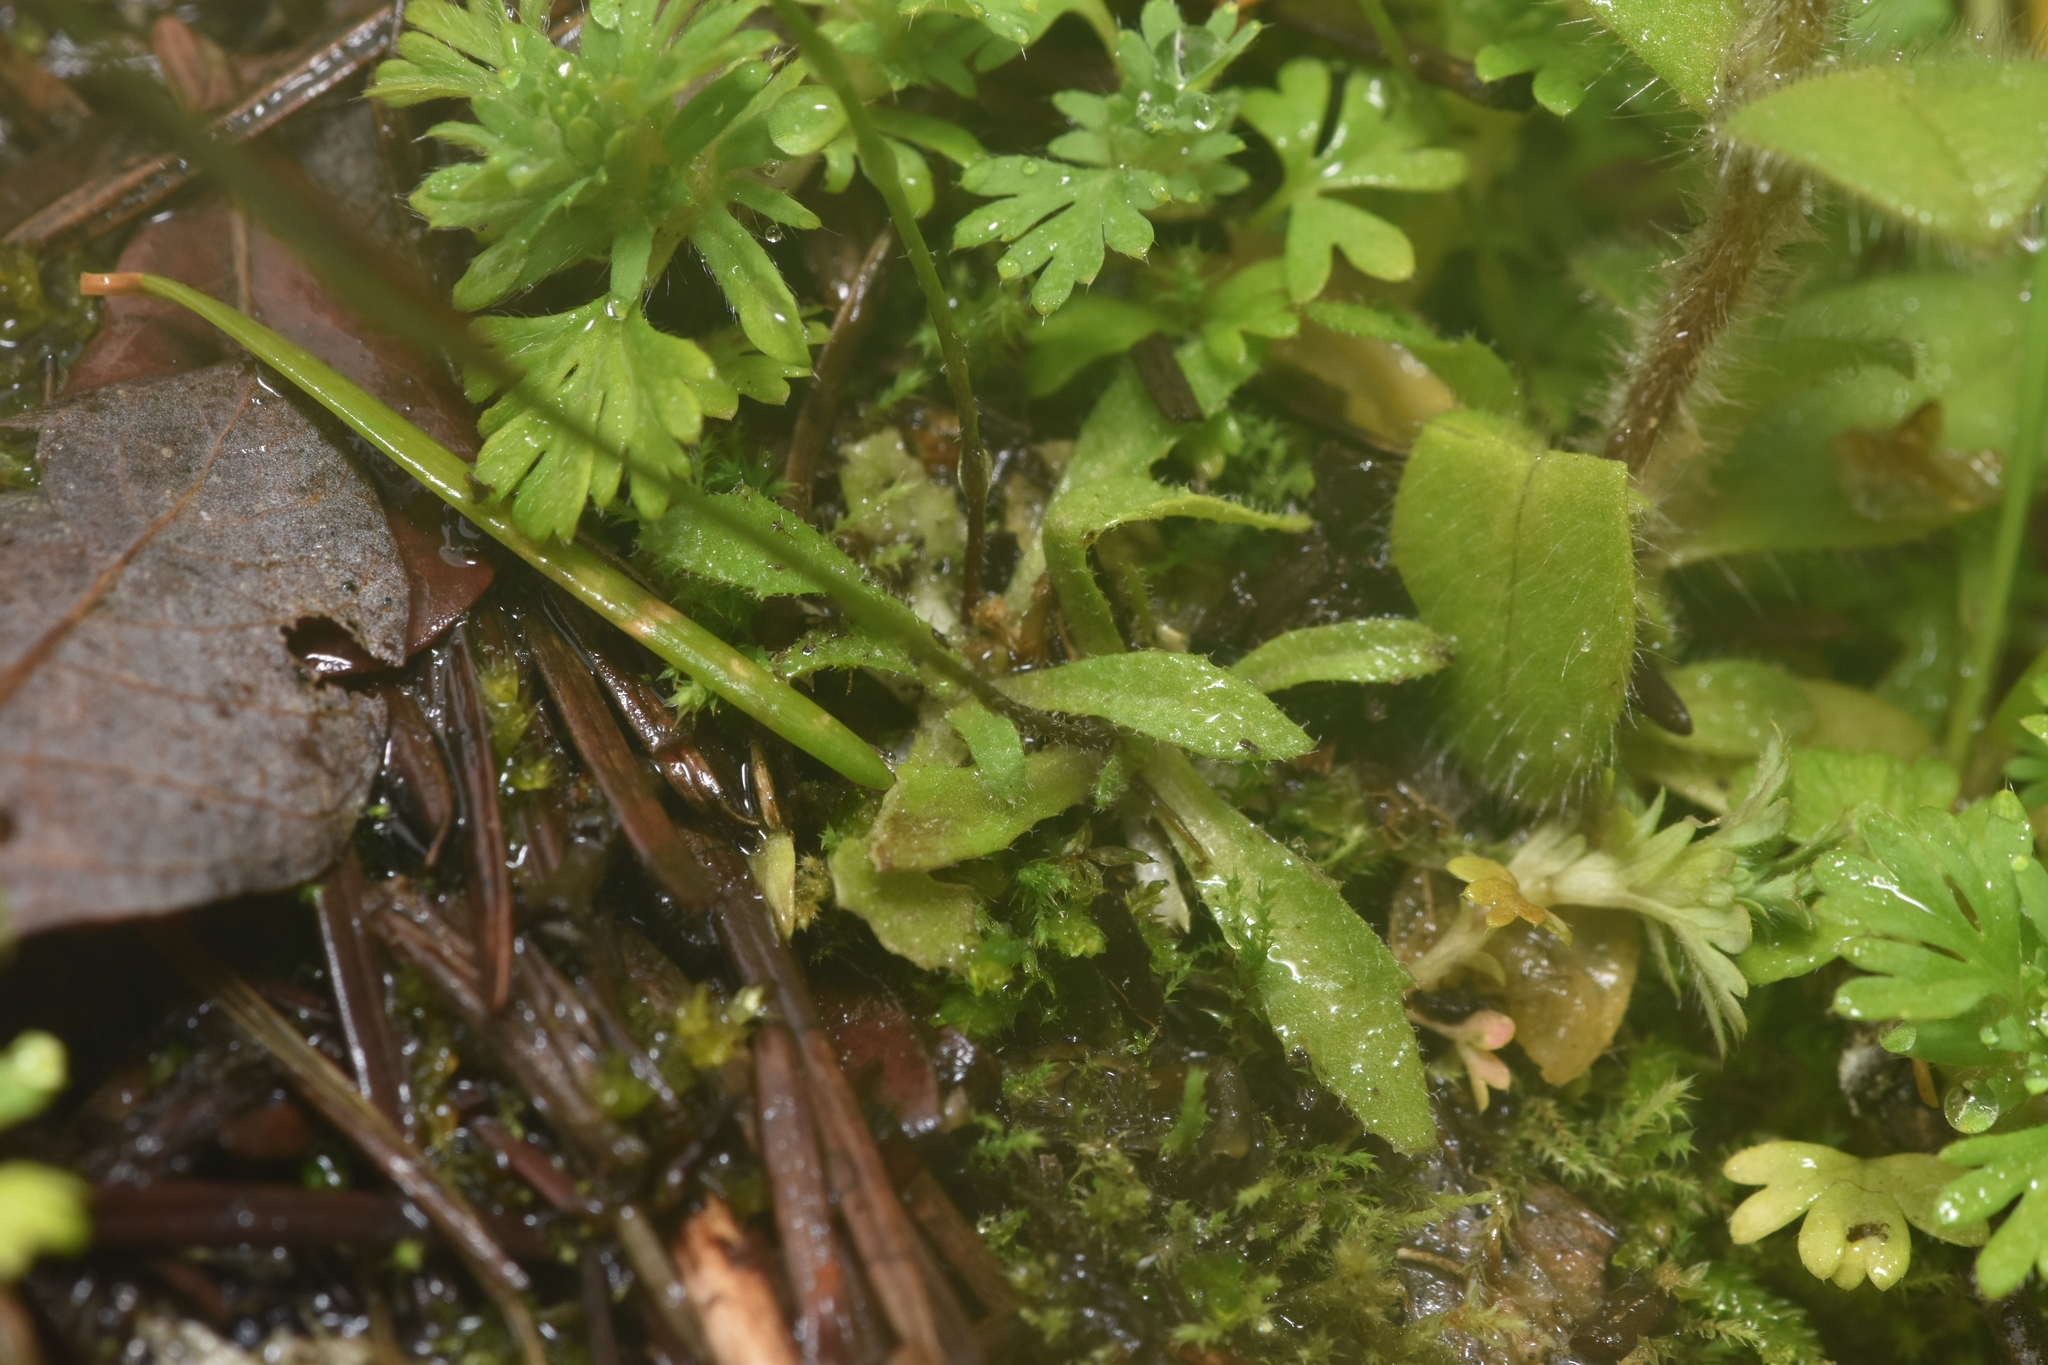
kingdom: Plantae
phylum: Tracheophyta
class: Magnoliopsida
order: Brassicales
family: Brassicaceae
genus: Draba
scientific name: Draba verna
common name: Spring draba
